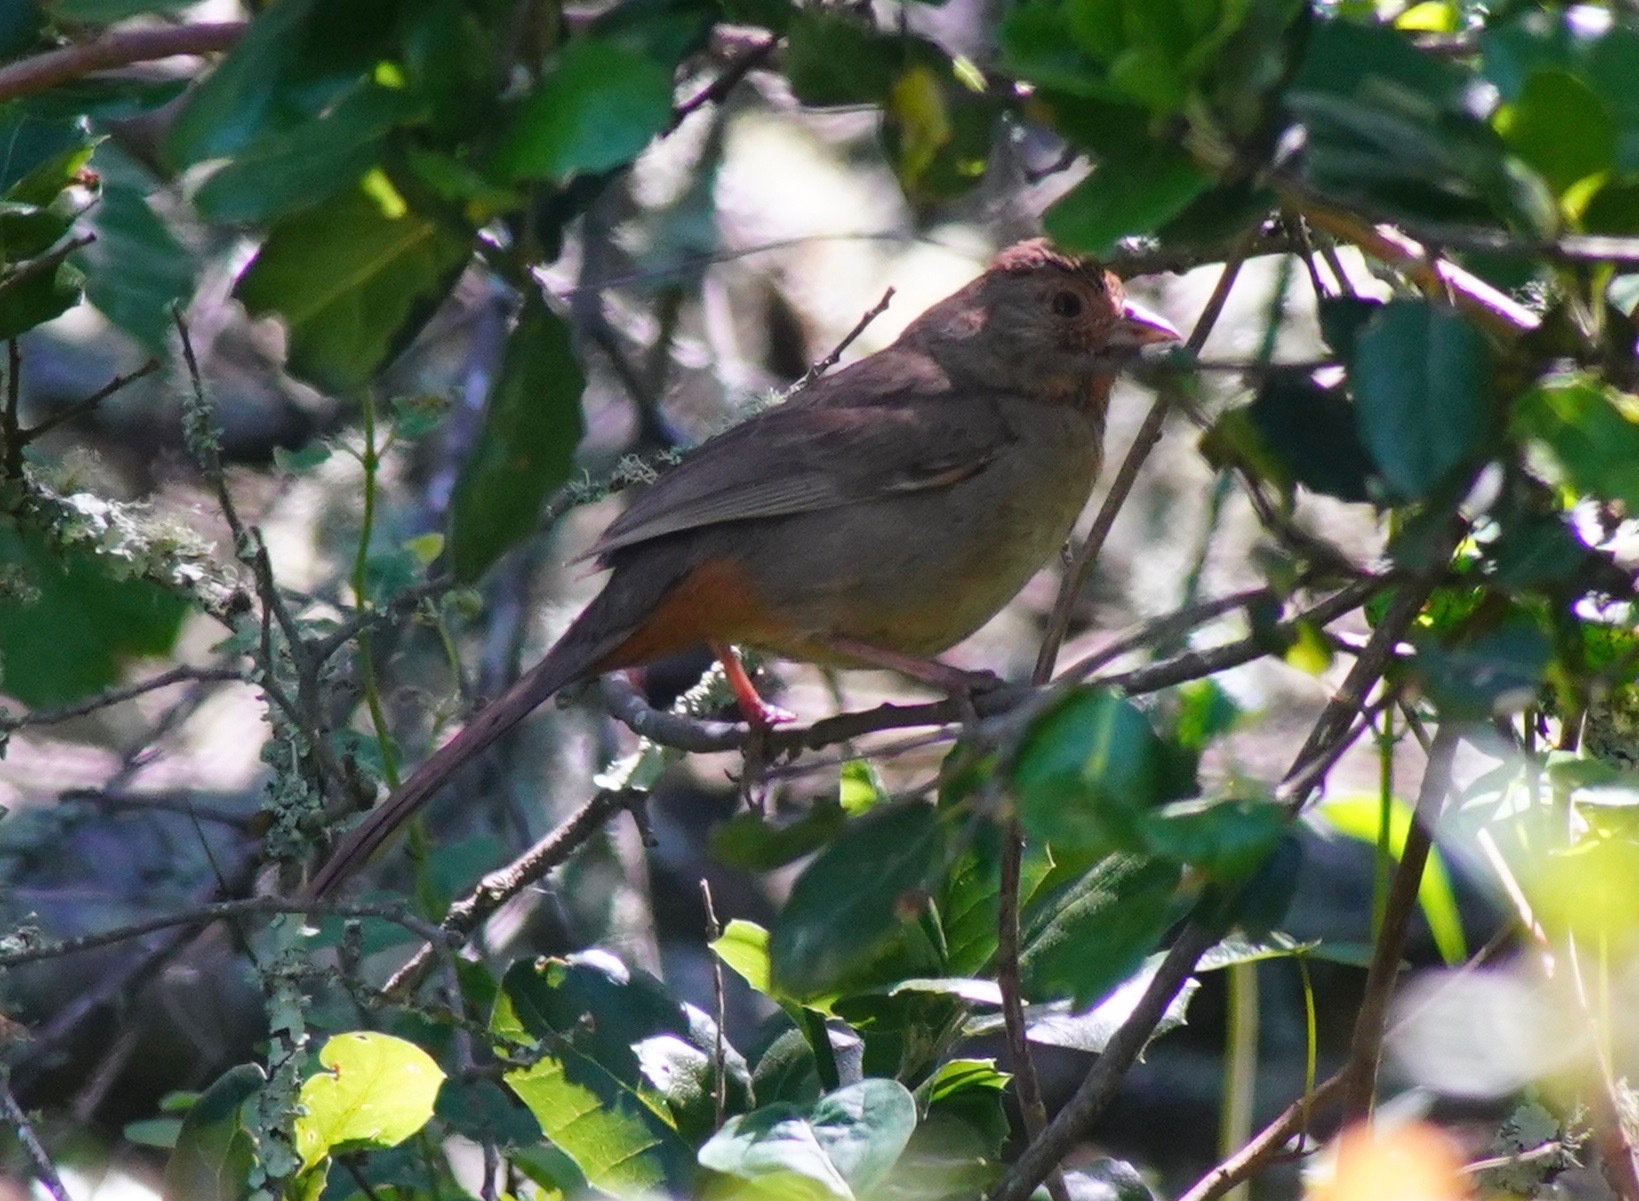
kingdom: Animalia
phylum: Chordata
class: Aves
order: Passeriformes
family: Passerellidae
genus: Melozone
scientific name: Melozone crissalis
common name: California towhee
